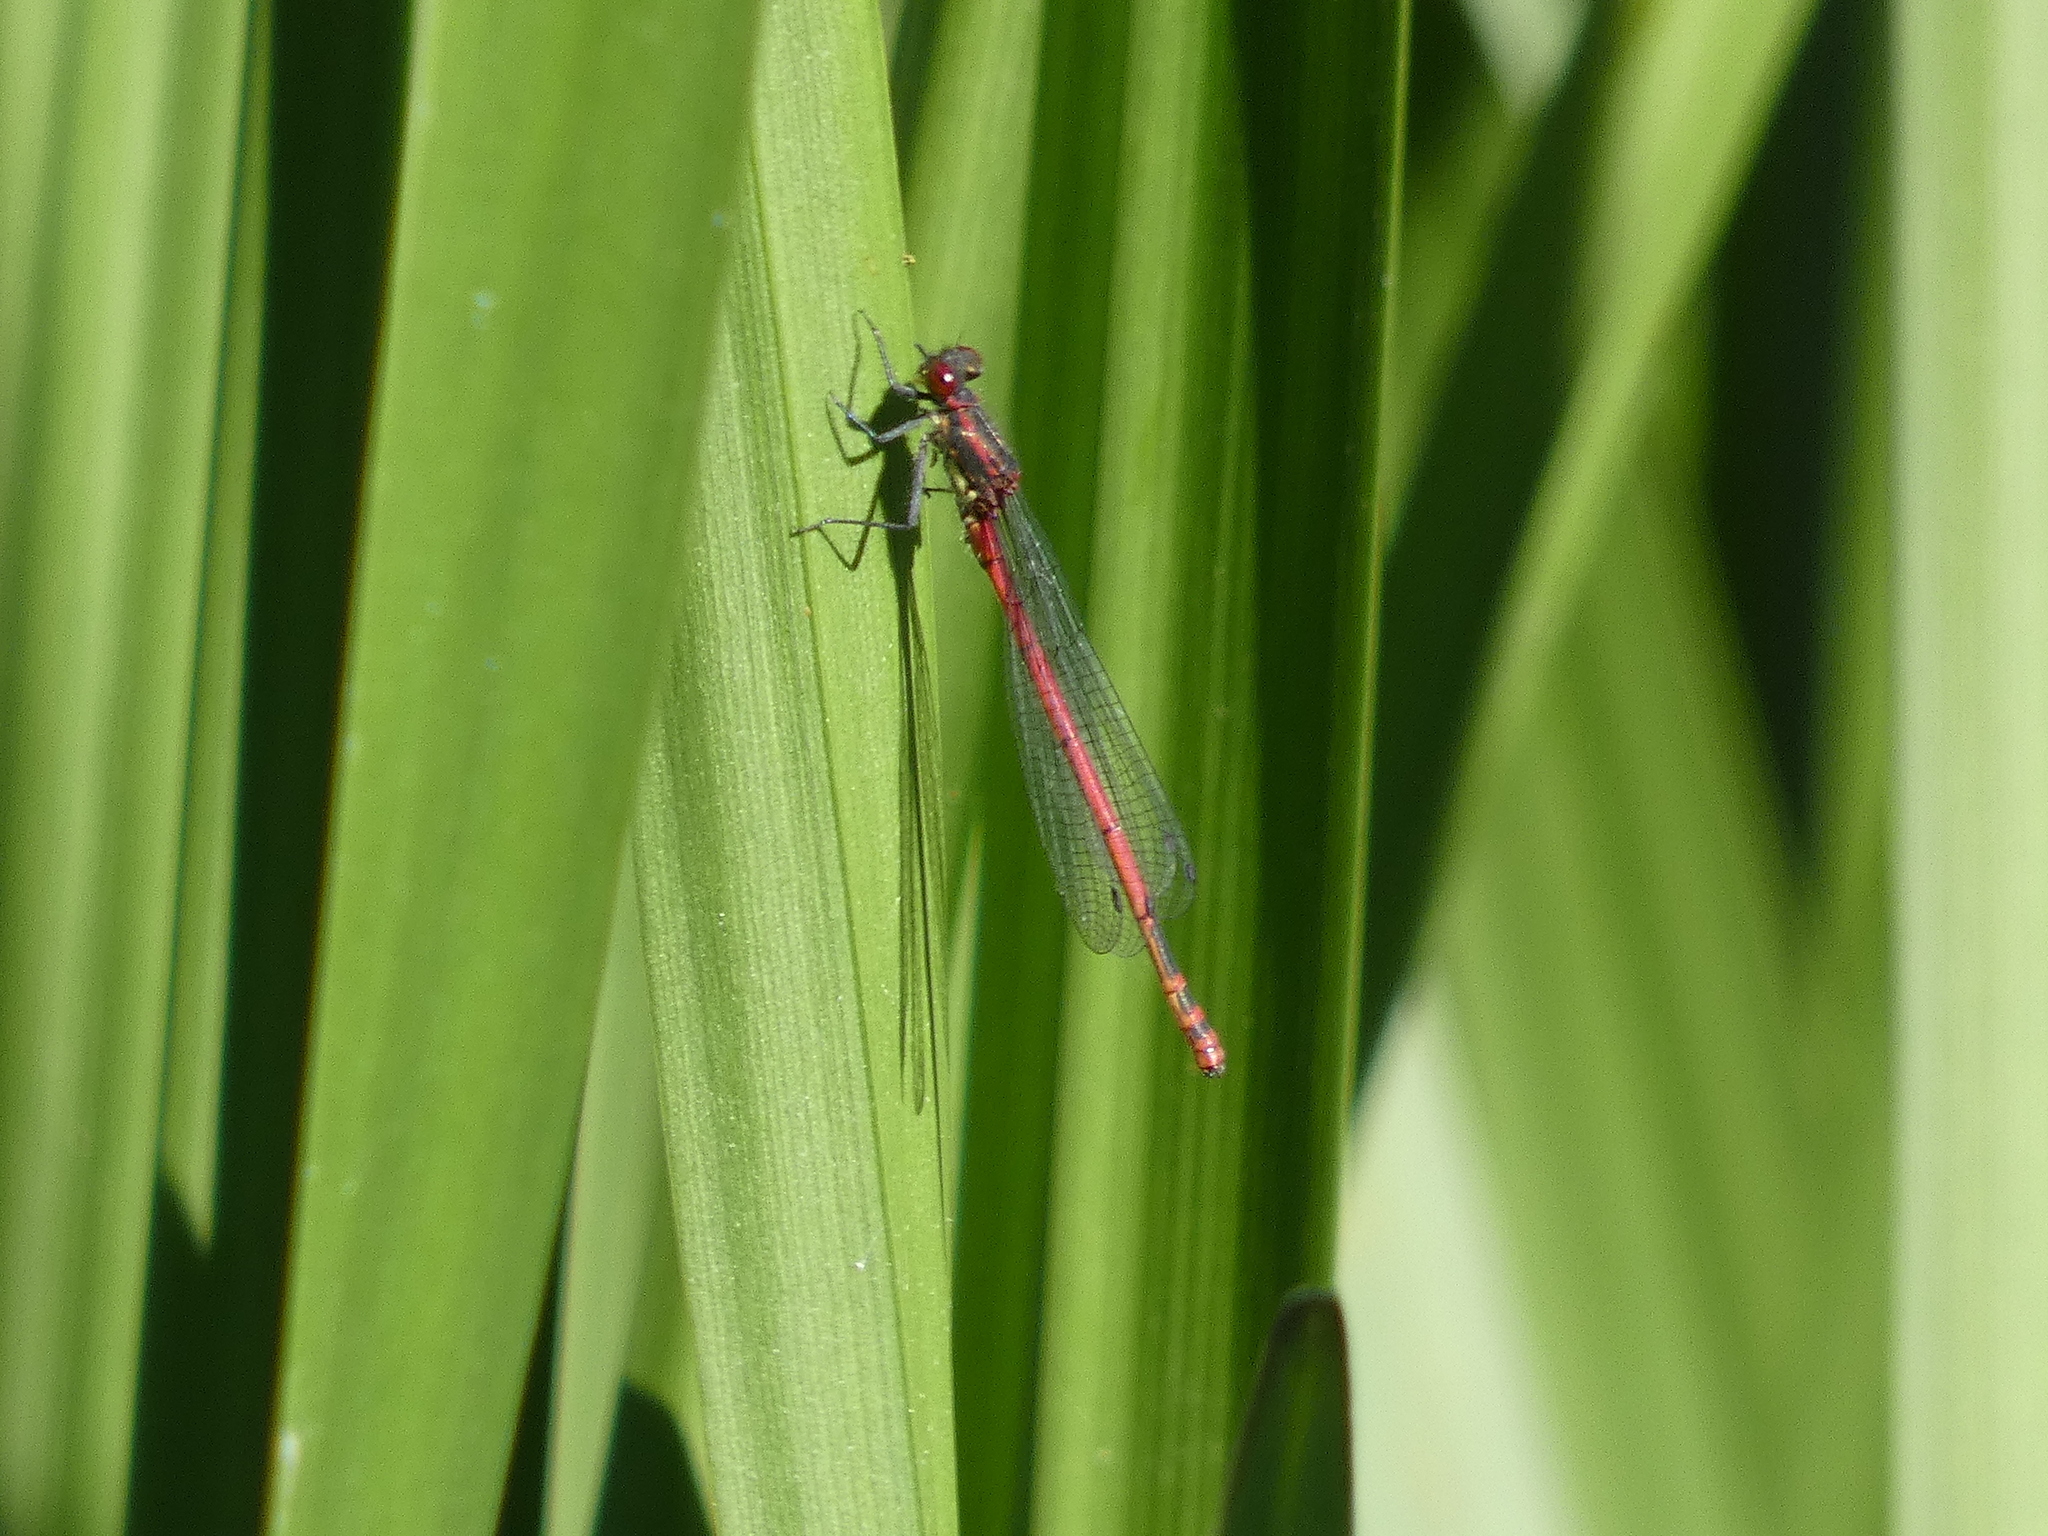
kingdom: Animalia
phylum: Arthropoda
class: Insecta
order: Odonata
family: Coenagrionidae
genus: Pyrrhosoma
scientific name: Pyrrhosoma nymphula
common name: Large red damsel
